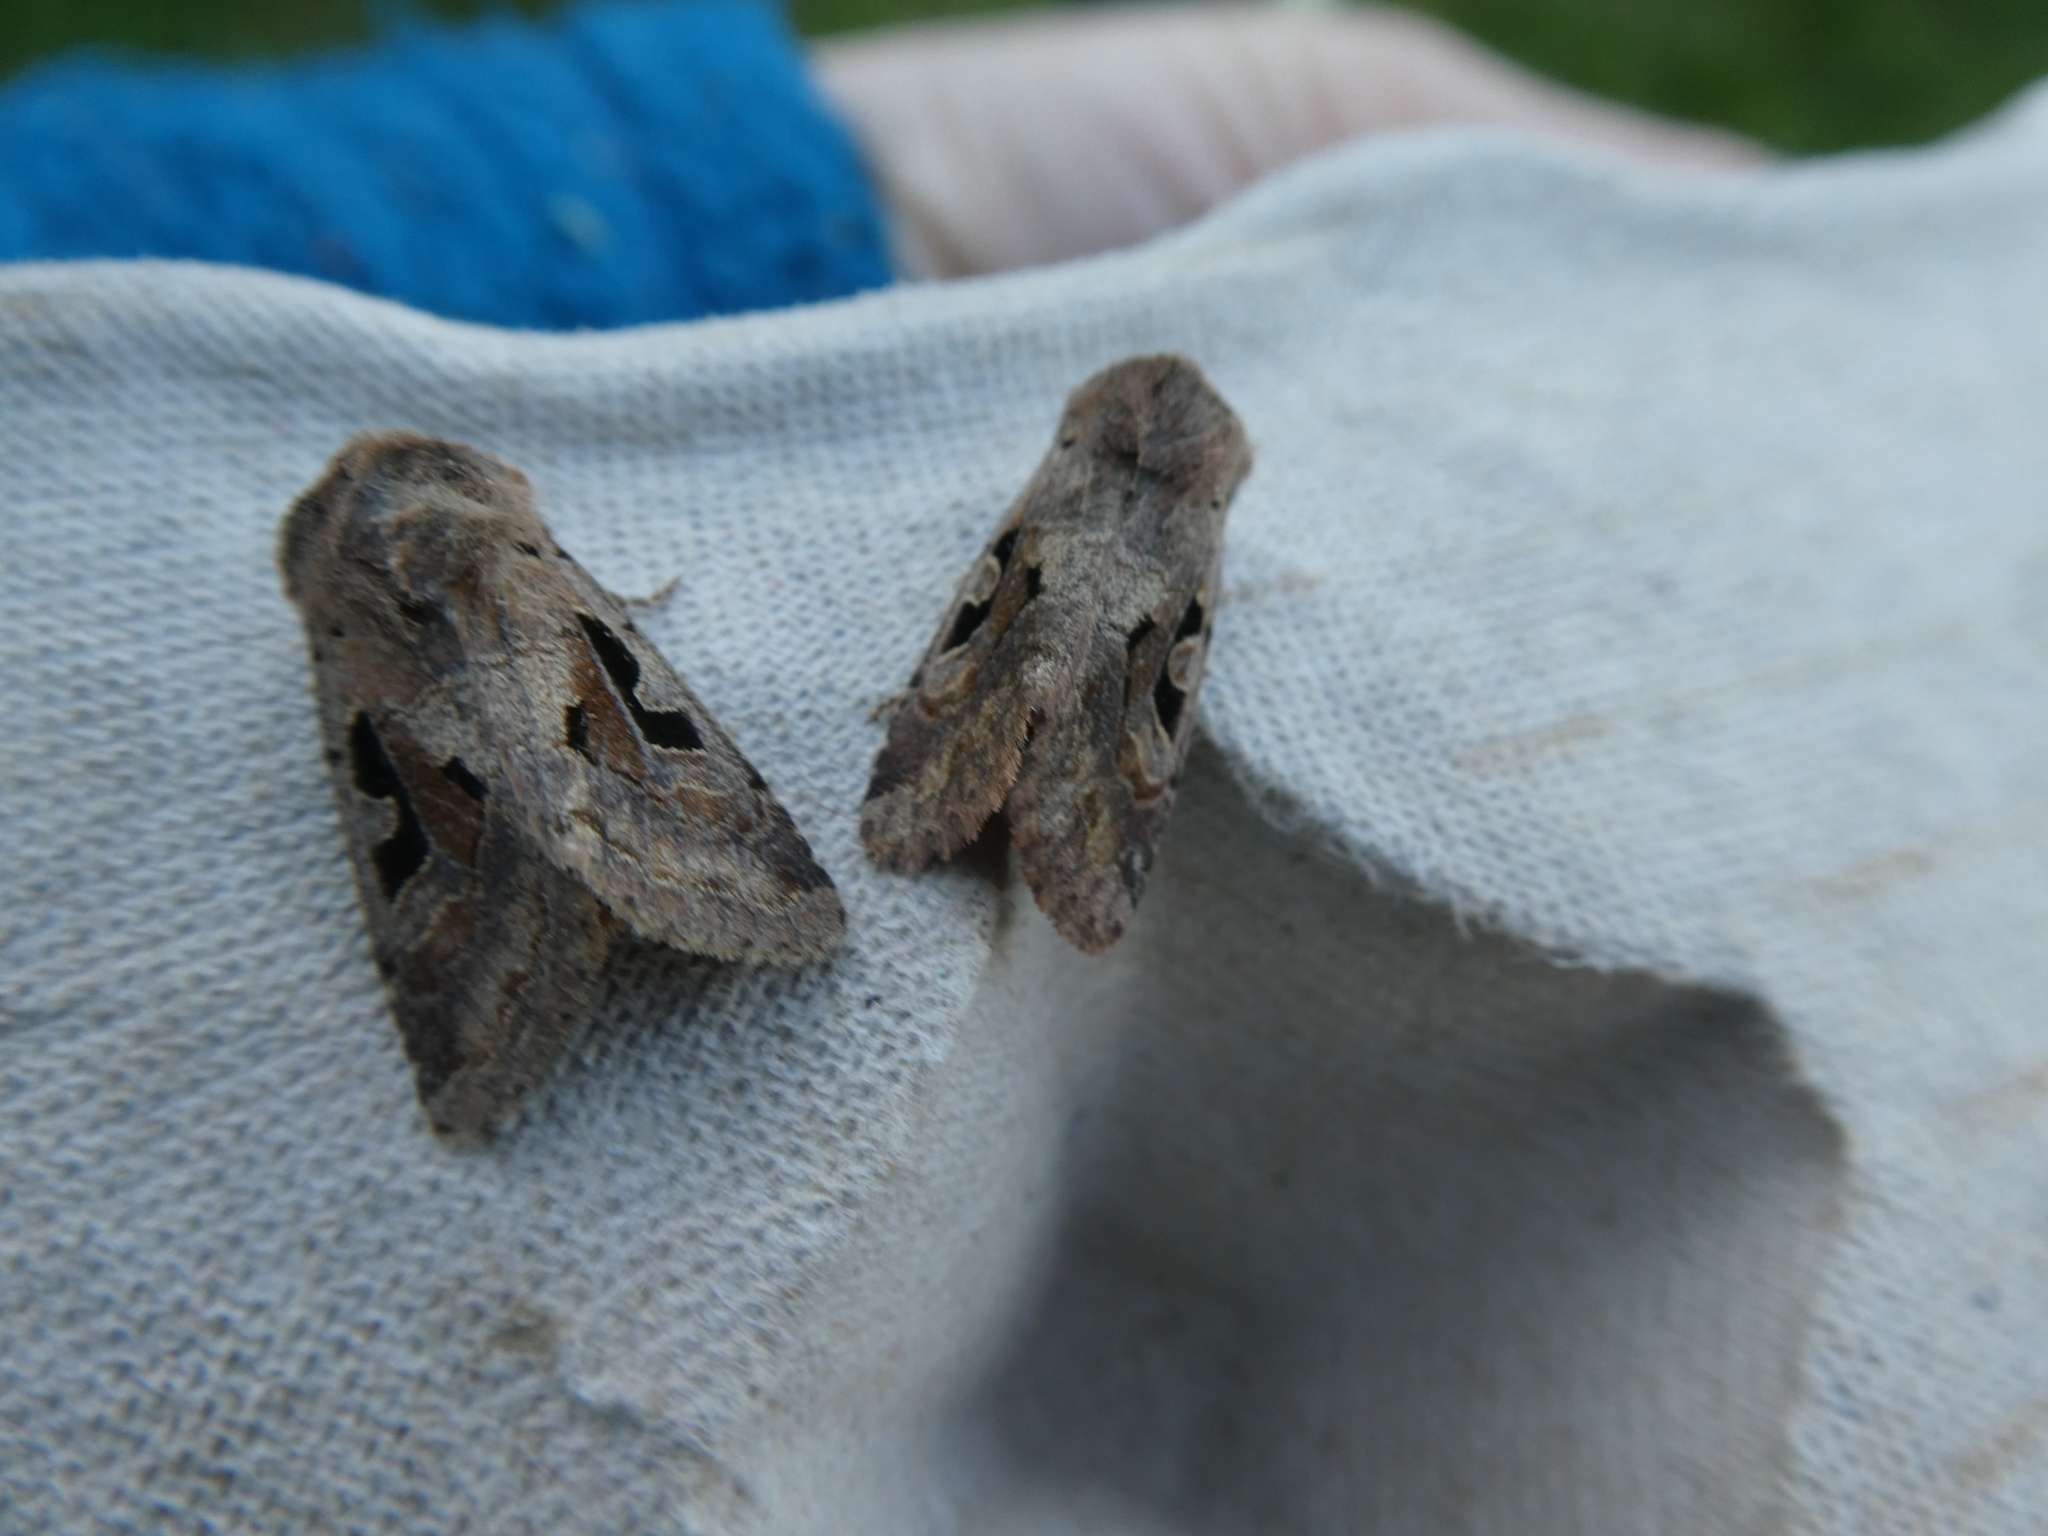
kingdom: Animalia
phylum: Arthropoda
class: Insecta
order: Lepidoptera
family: Noctuidae
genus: Orthosia
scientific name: Orthosia gothica
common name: Hebrew character
